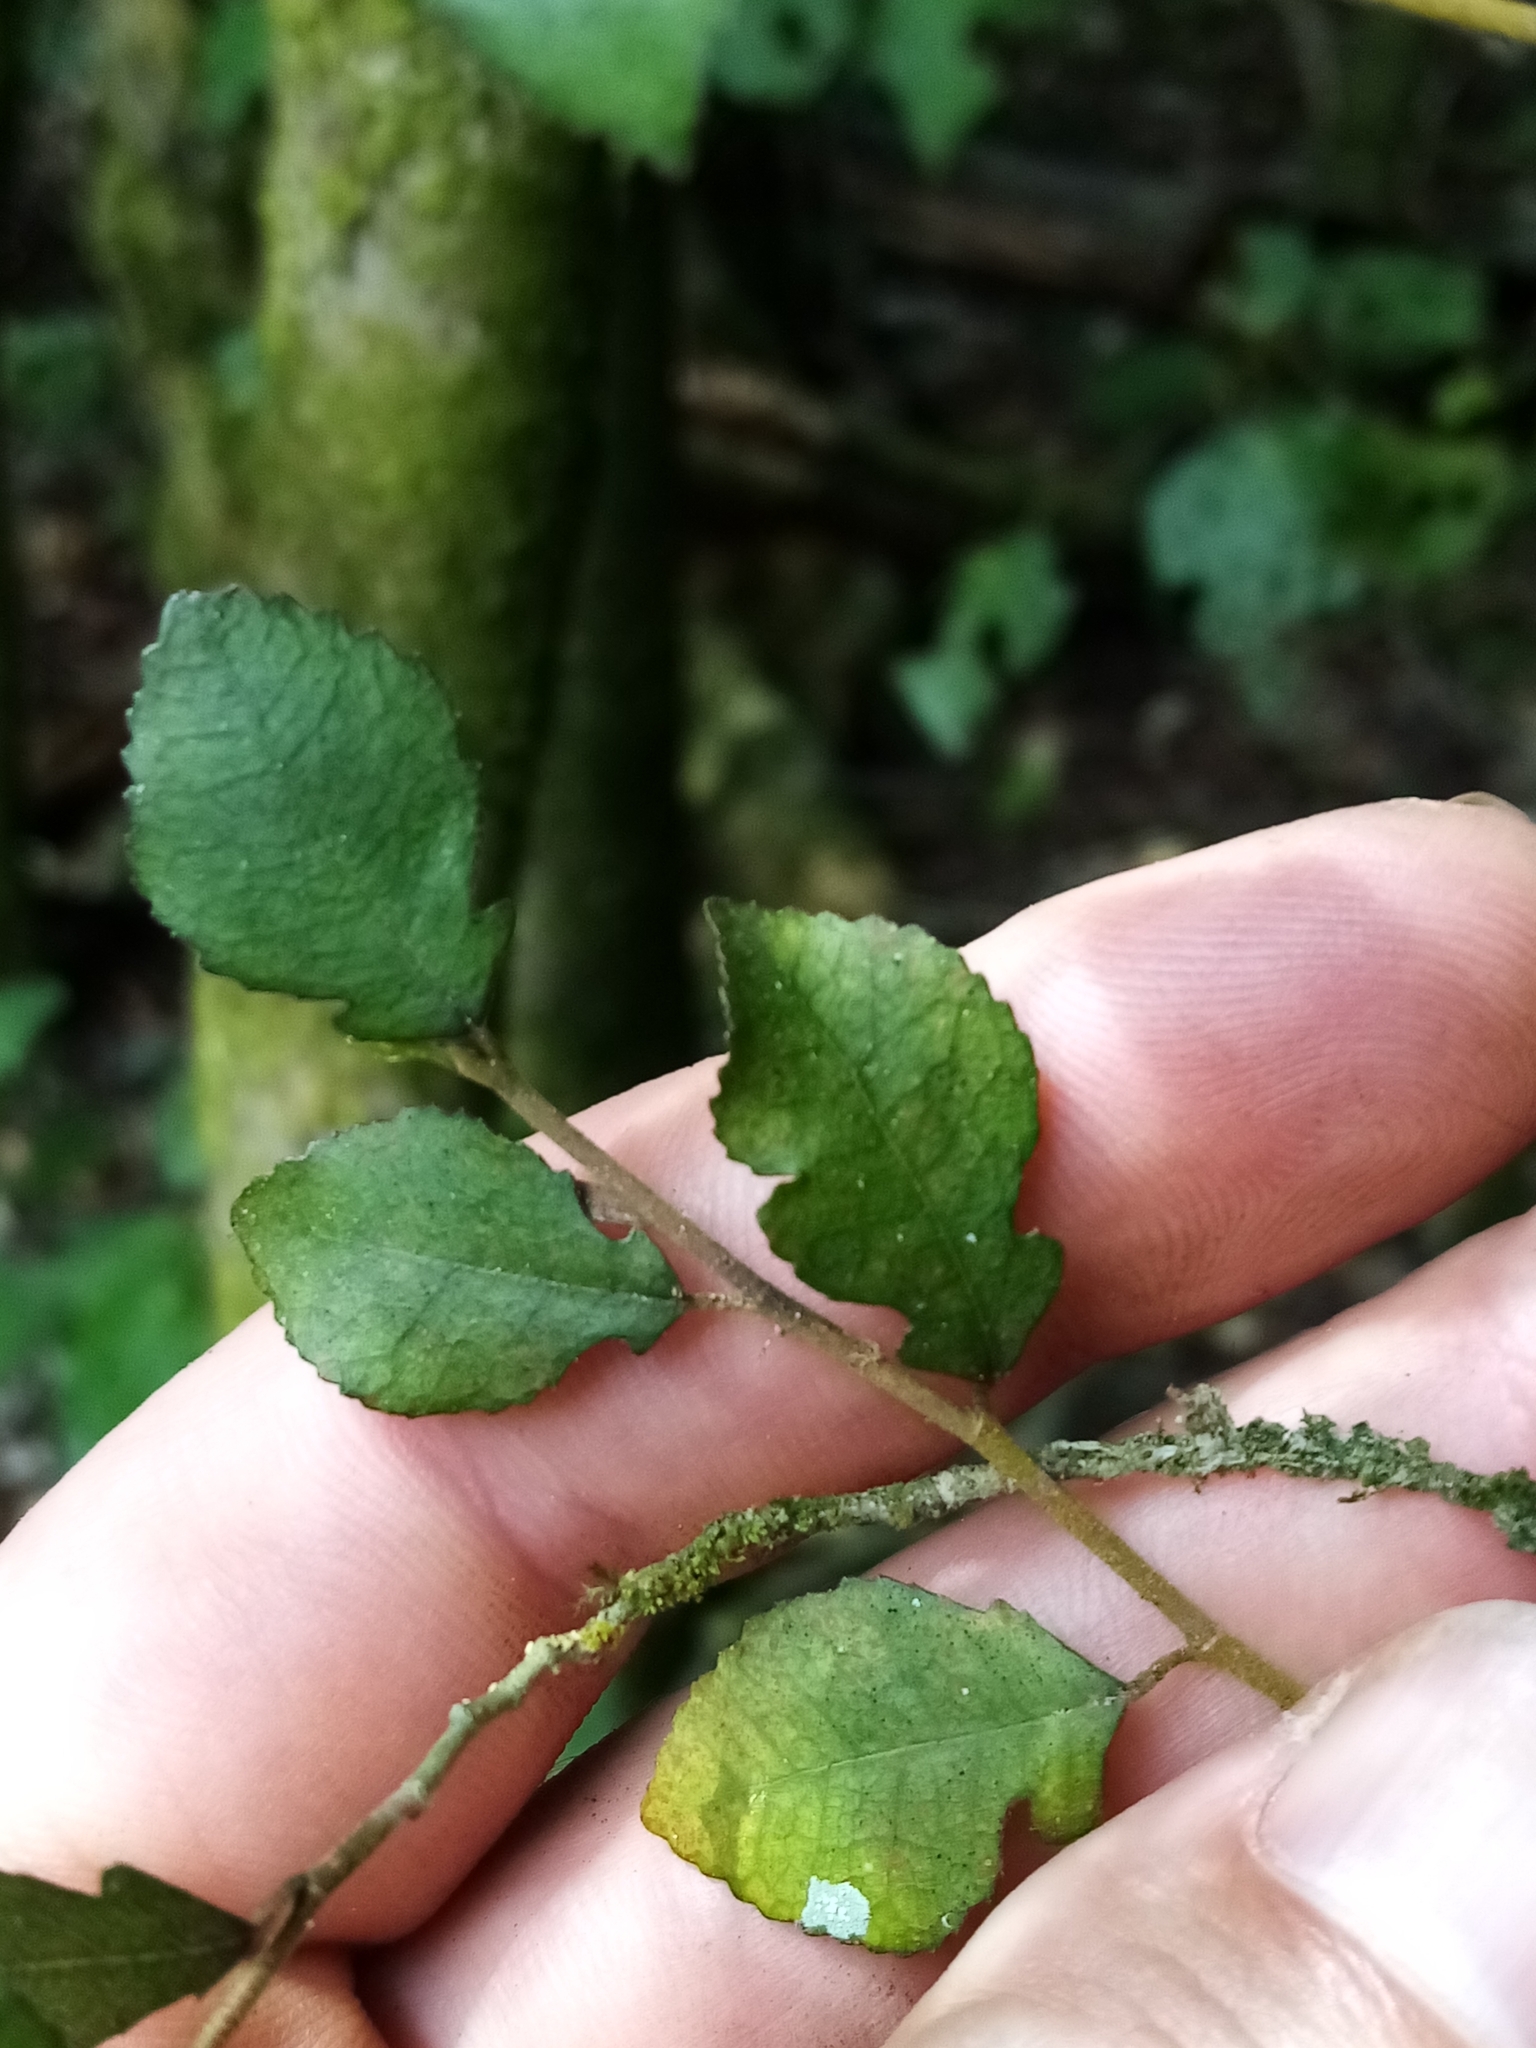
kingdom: Plantae
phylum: Tracheophyta
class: Magnoliopsida
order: Rosales
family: Moraceae
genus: Paratrophis
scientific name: Paratrophis microphylla
